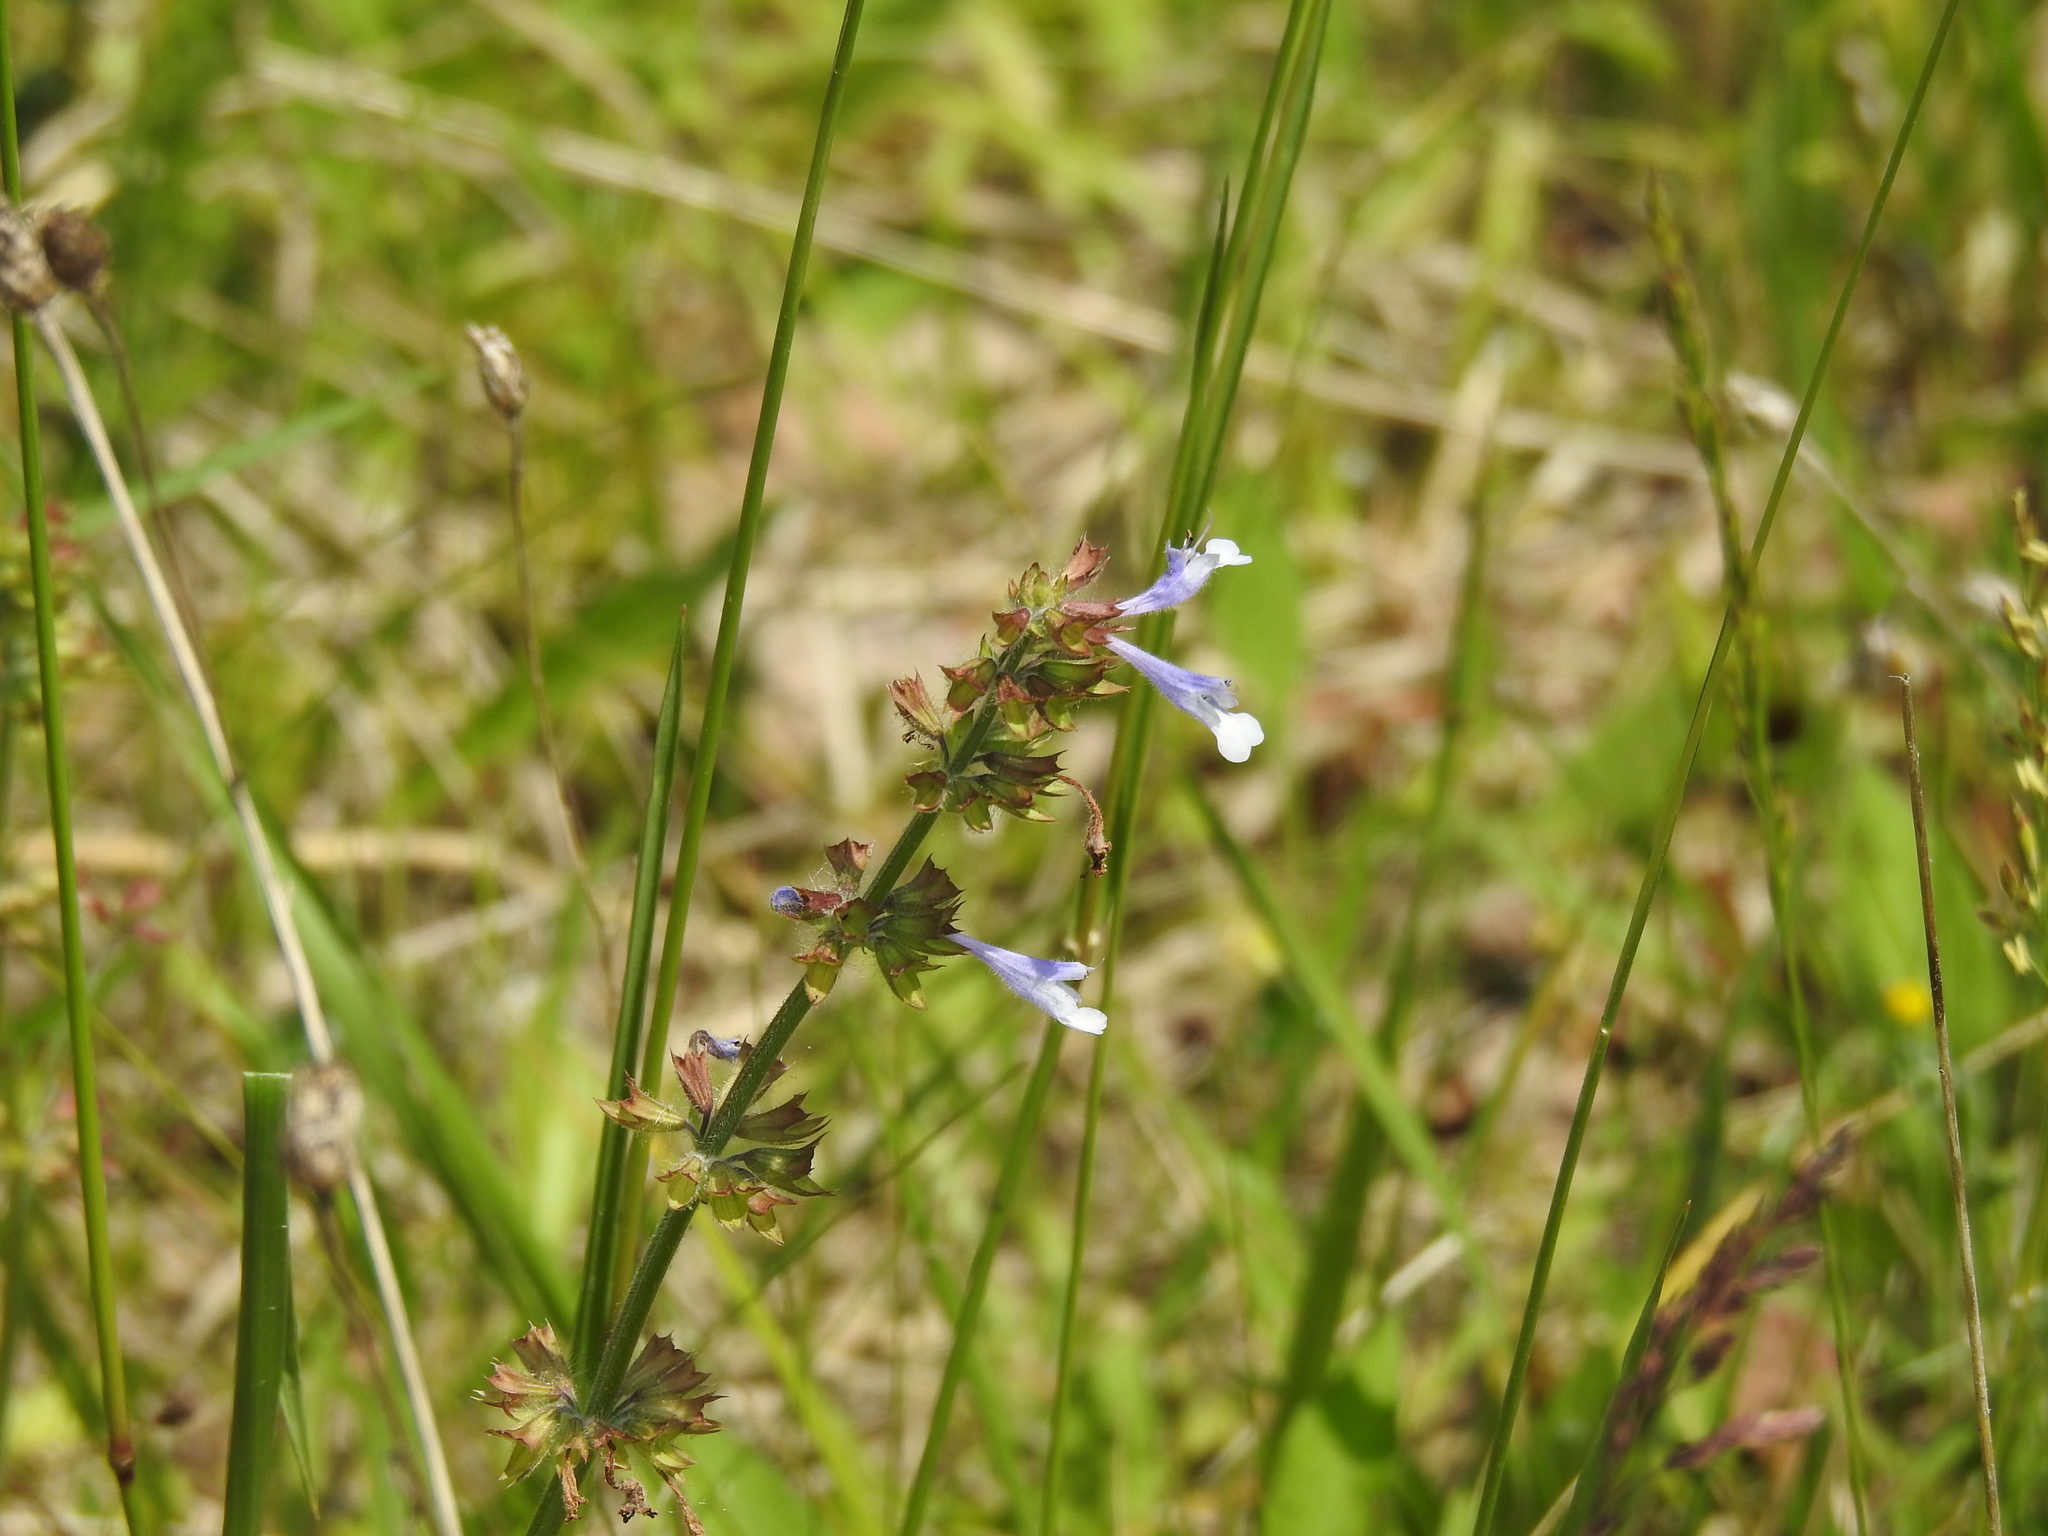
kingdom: Plantae
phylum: Tracheophyta
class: Magnoliopsida
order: Lamiales
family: Lamiaceae
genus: Salvia
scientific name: Salvia lyrata
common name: Cancerweed
